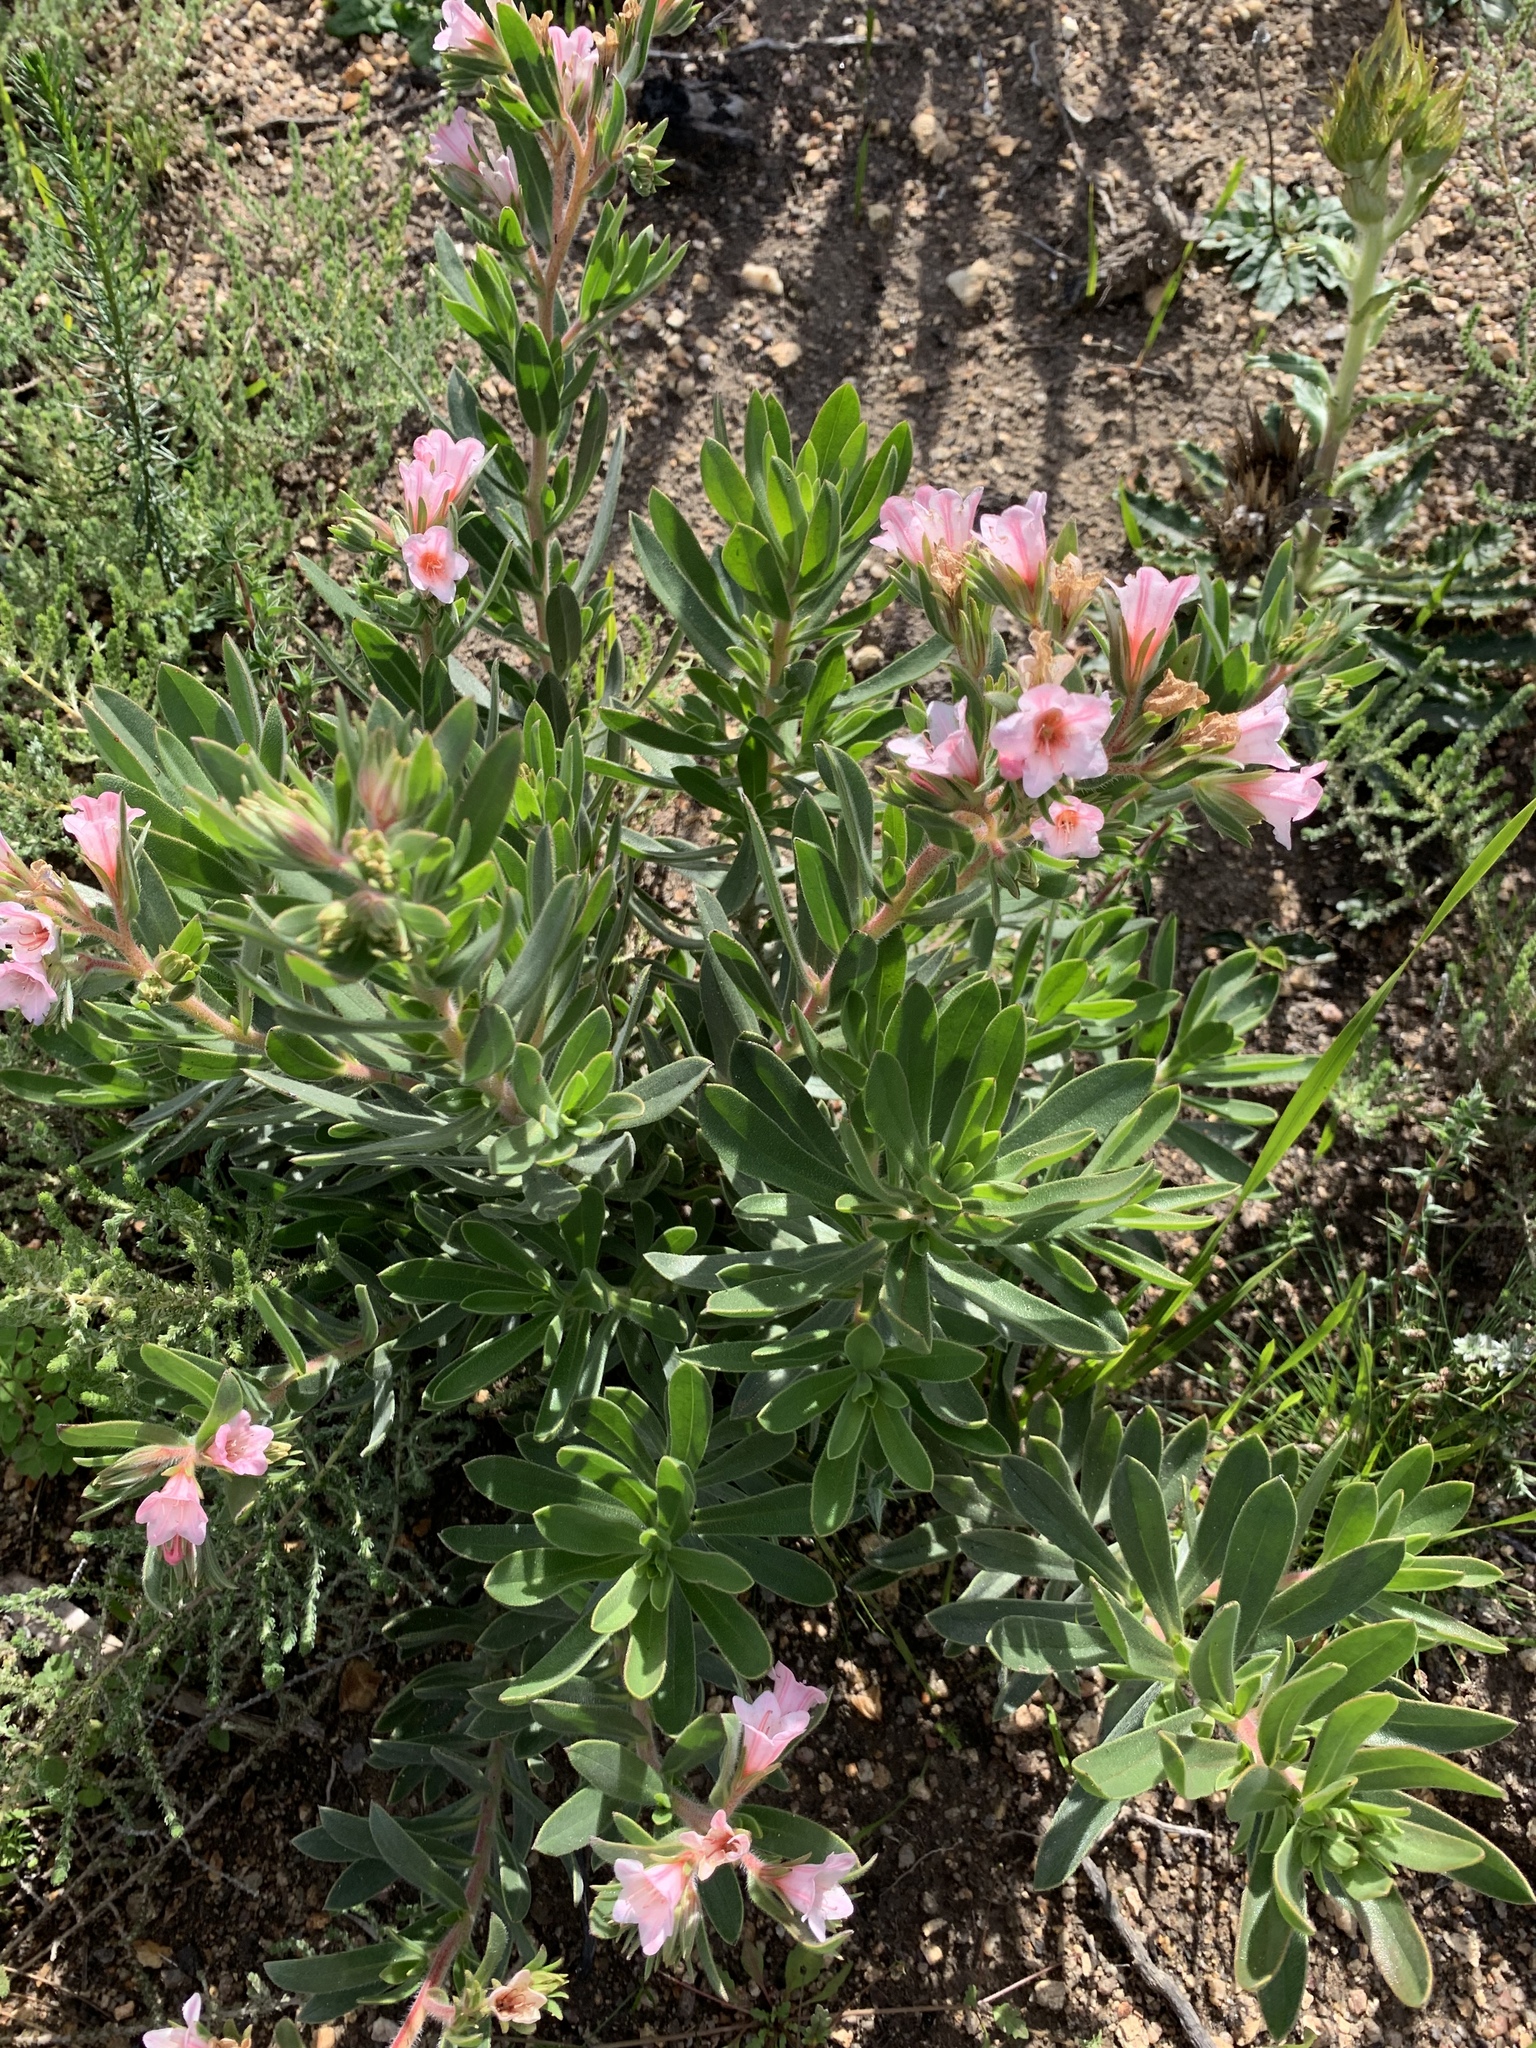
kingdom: Plantae
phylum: Tracheophyta
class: Magnoliopsida
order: Boraginales
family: Boraginaceae
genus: Lobostemon
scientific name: Lobostemon fruticosus
